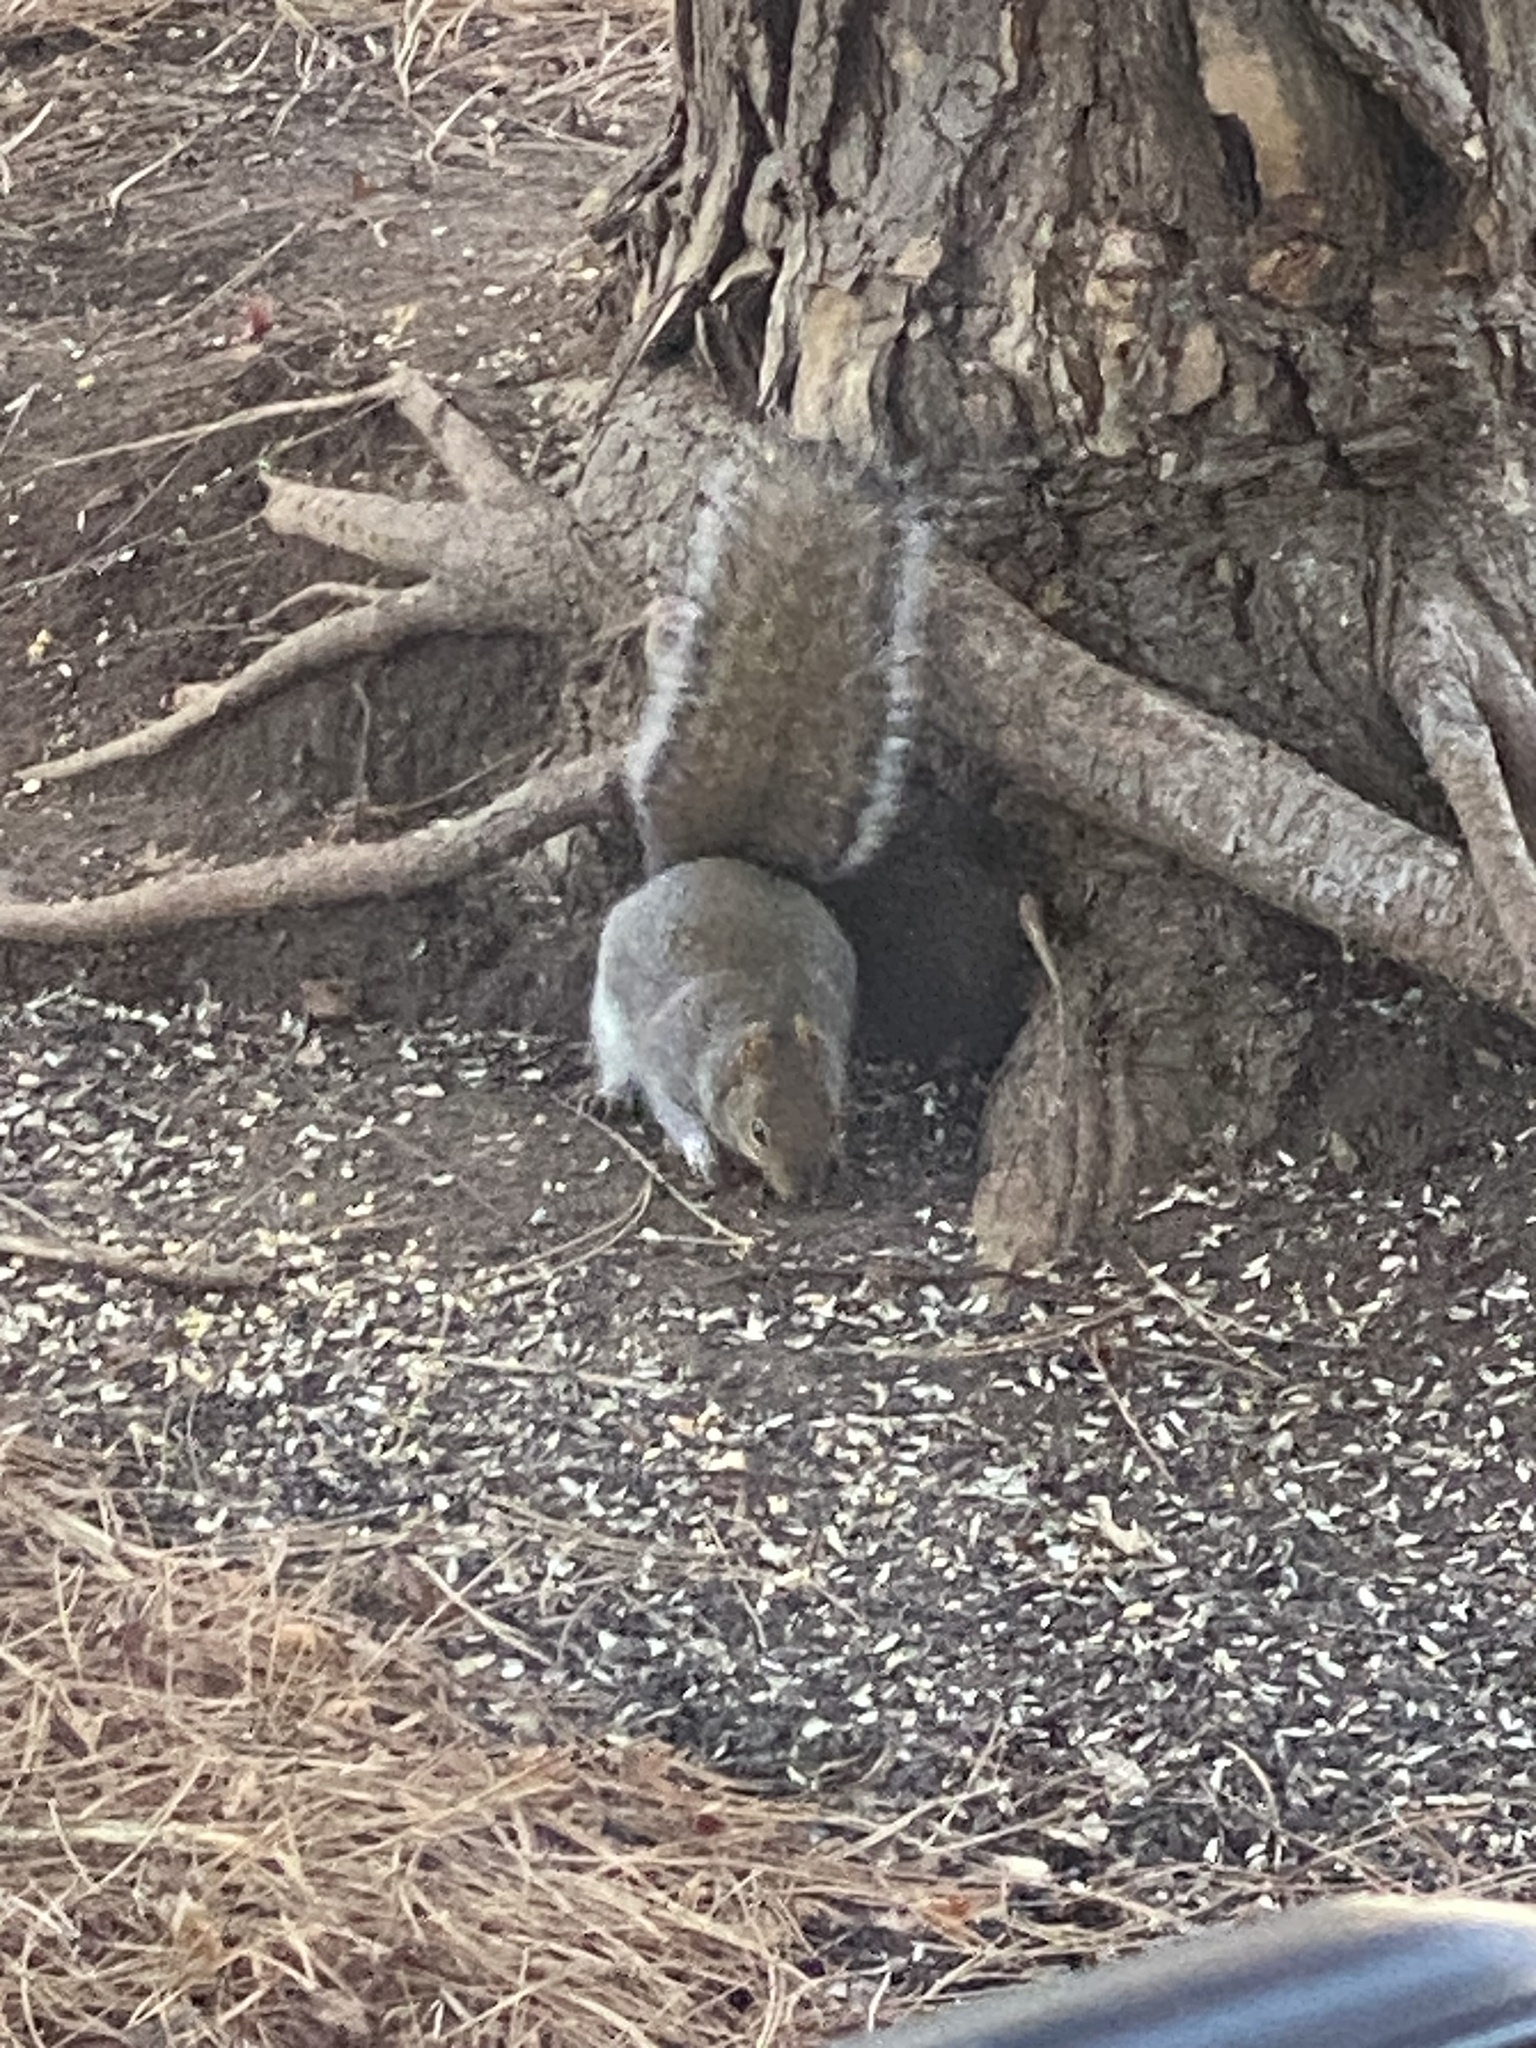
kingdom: Animalia
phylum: Chordata
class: Mammalia
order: Rodentia
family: Sciuridae
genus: Sciurus
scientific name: Sciurus carolinensis
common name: Eastern gray squirrel
